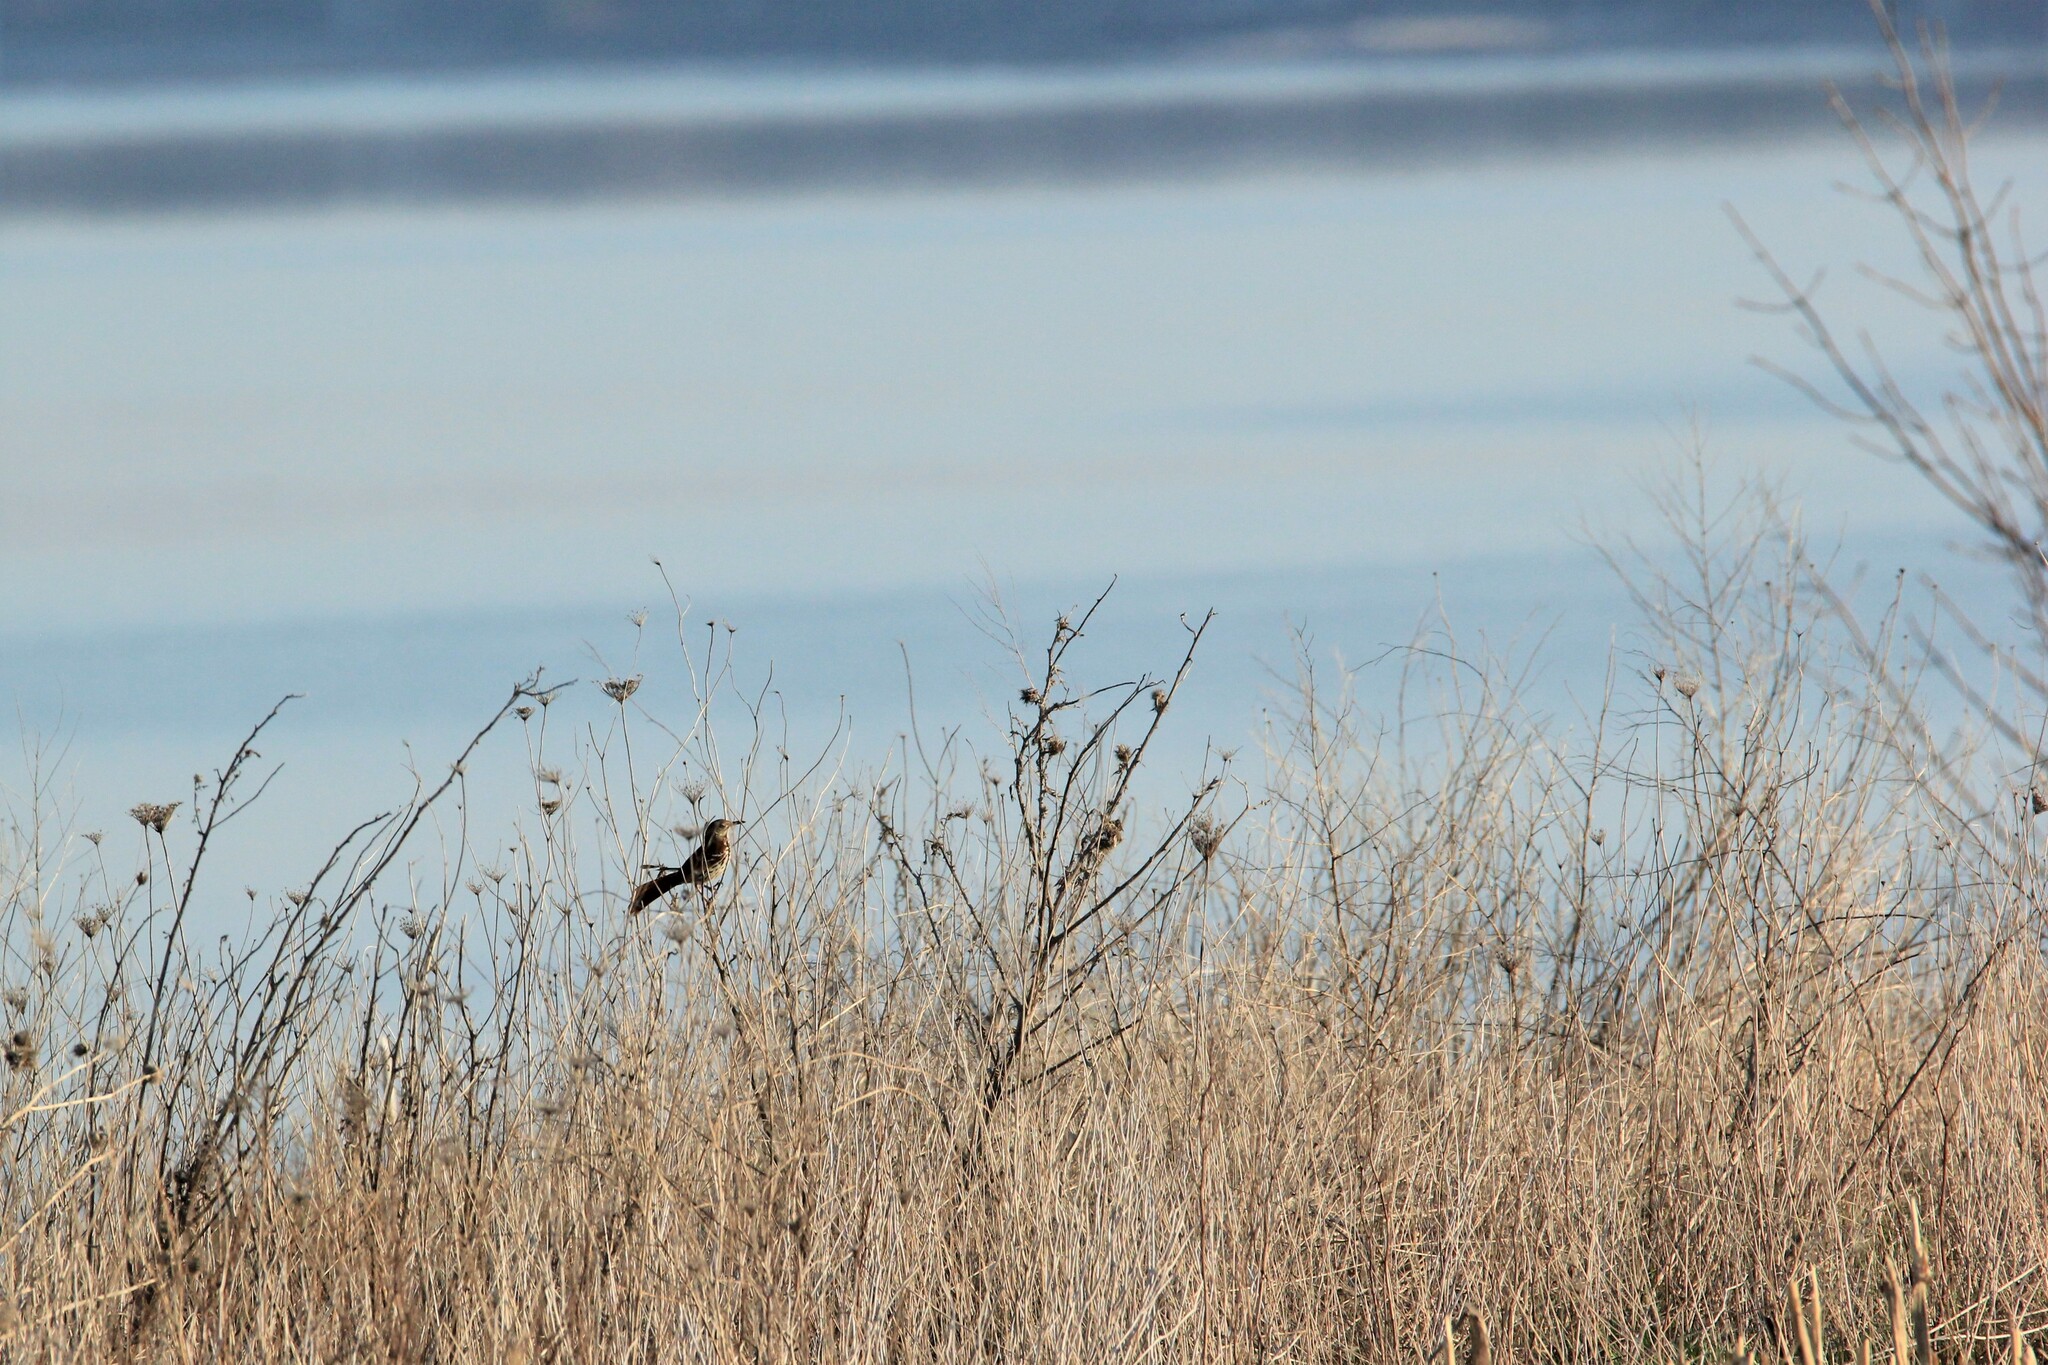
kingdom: Animalia
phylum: Chordata
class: Aves
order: Passeriformes
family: Mimidae
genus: Toxostoma
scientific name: Toxostoma rufum
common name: Brown thrasher
